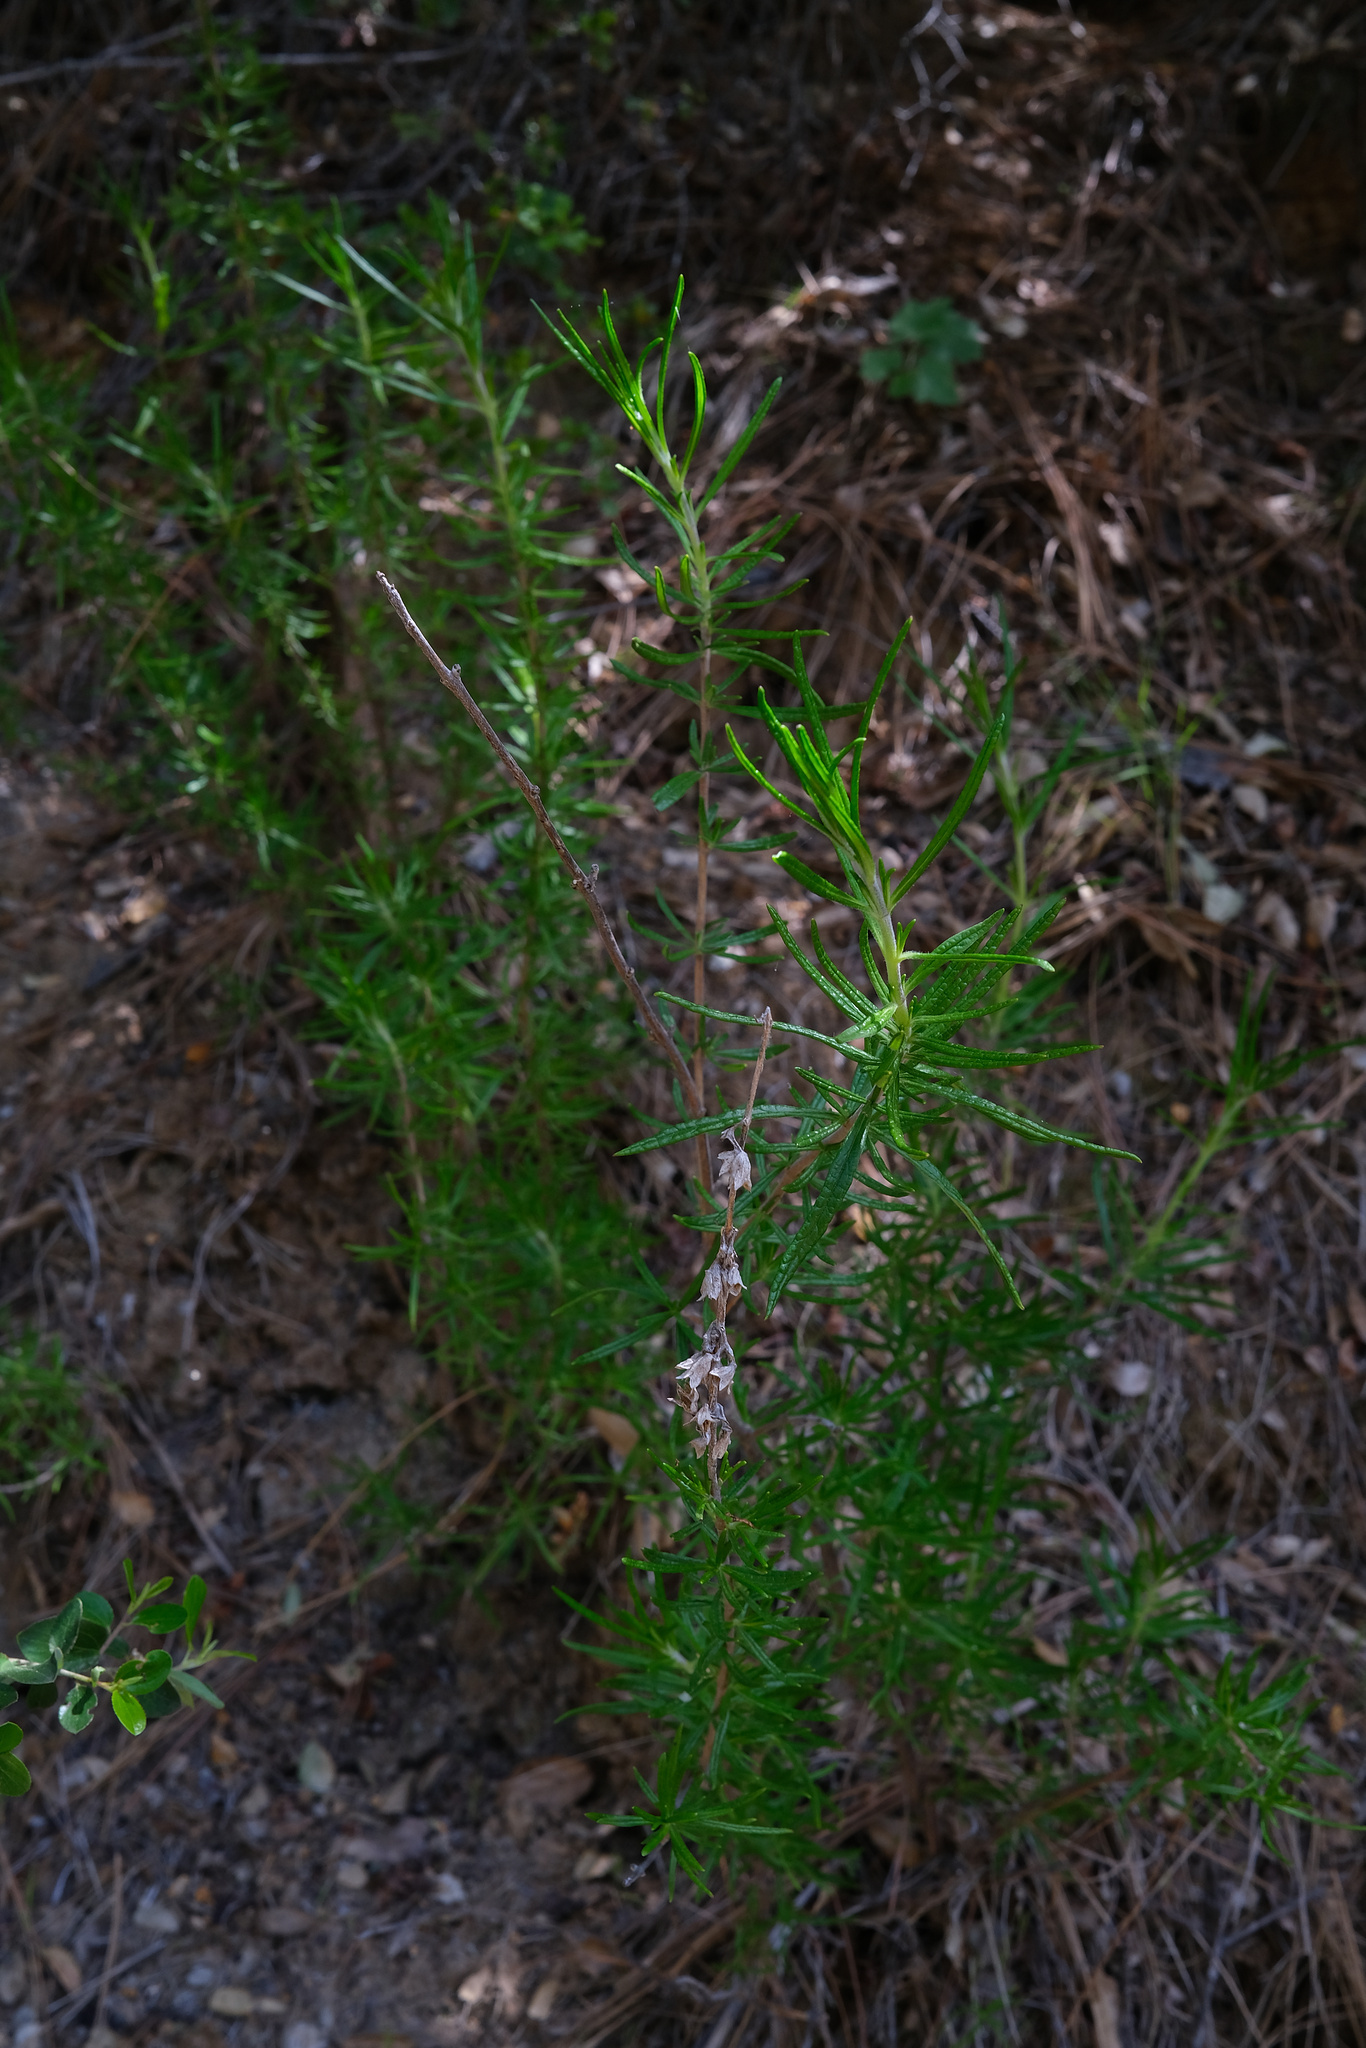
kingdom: Plantae
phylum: Tracheophyta
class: Magnoliopsida
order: Lamiales
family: Lamiaceae
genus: Trichostema
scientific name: Trichostema lanatum
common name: Woolly bluecurls
